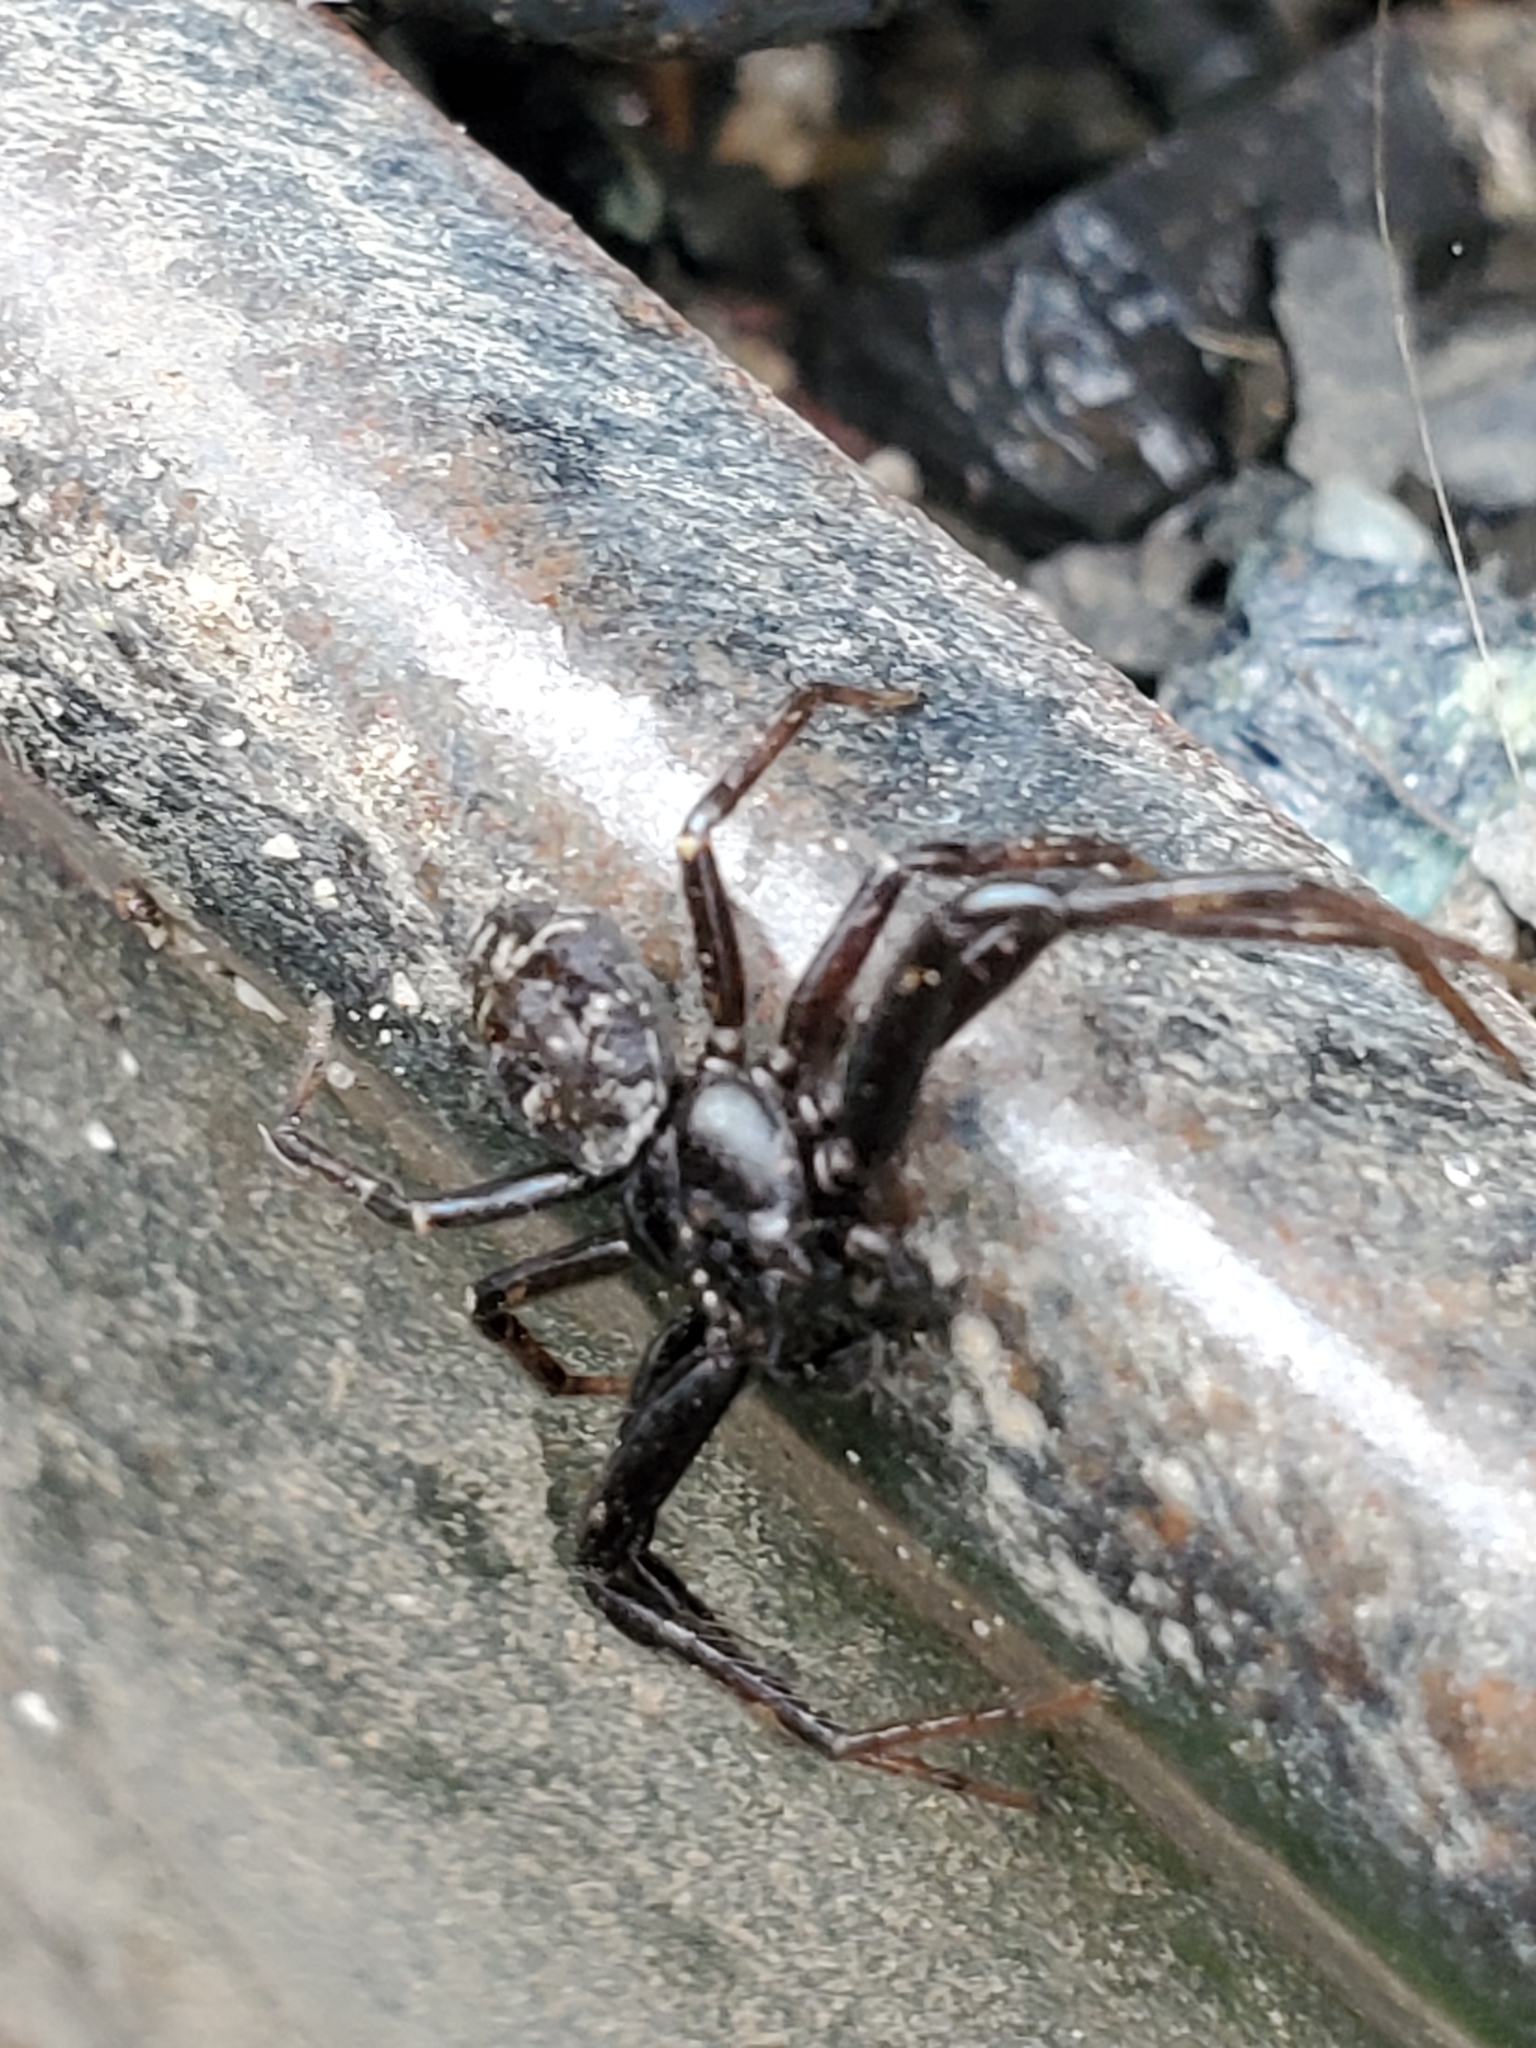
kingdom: Animalia
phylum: Arthropoda
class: Arachnida
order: Araneae
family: Thomisidae
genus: Coriarachne
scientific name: Coriarachne brunneipes
